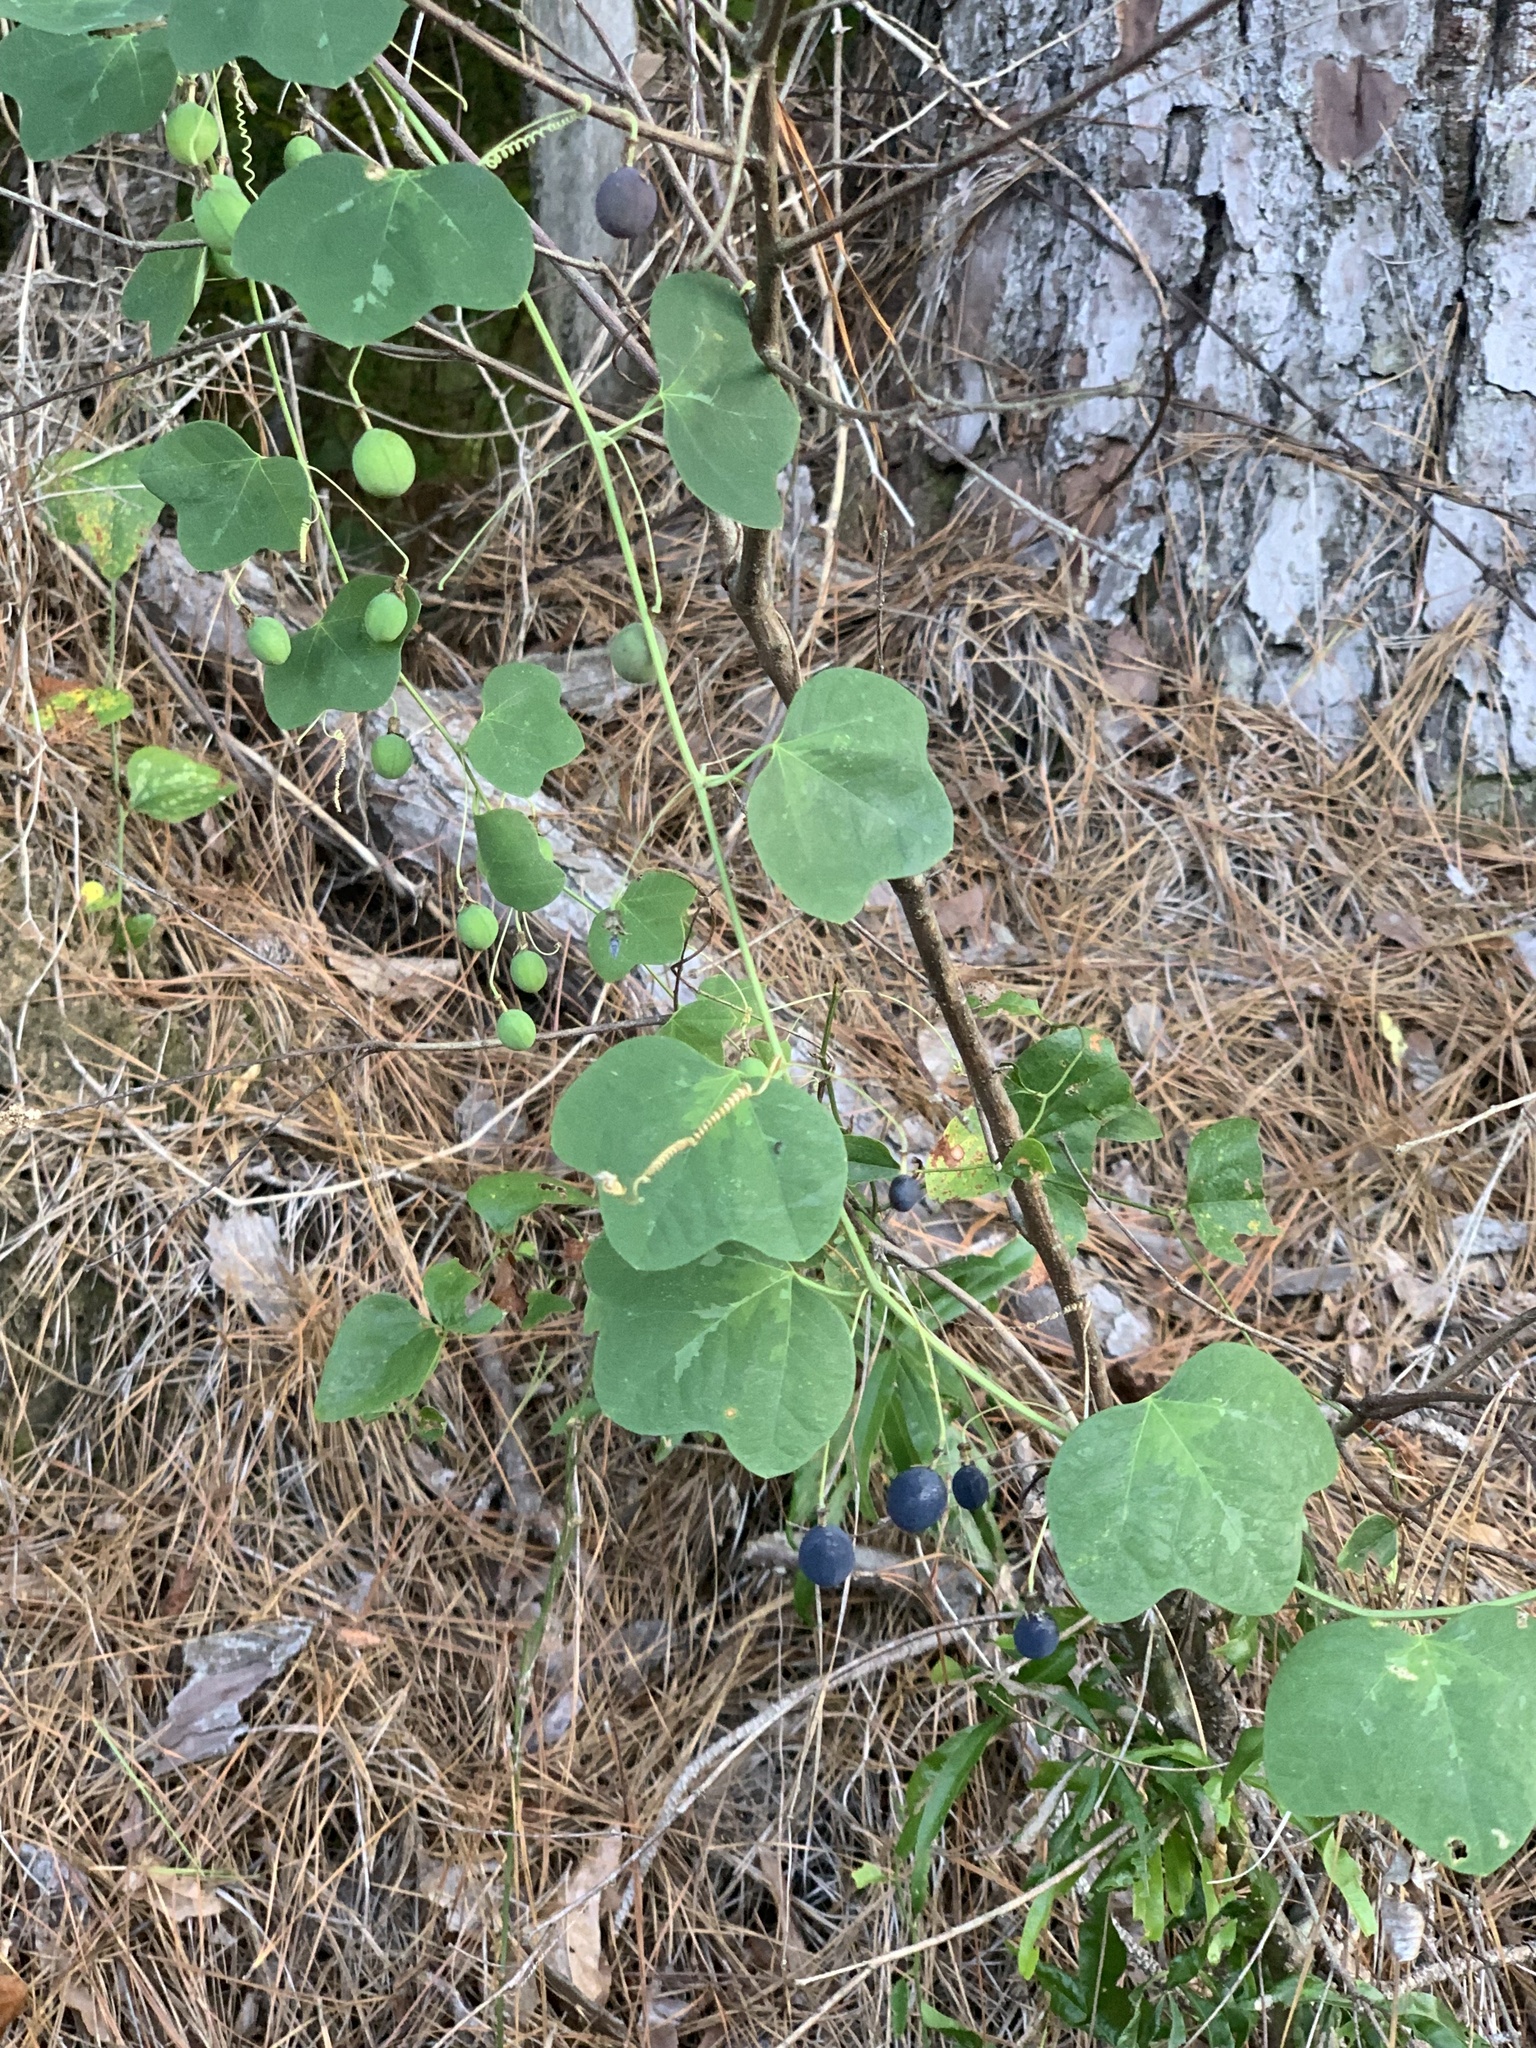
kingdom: Plantae
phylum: Tracheophyta
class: Magnoliopsida
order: Malpighiales
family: Passifloraceae
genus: Passiflora
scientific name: Passiflora lutea
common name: Yellow passionflower
